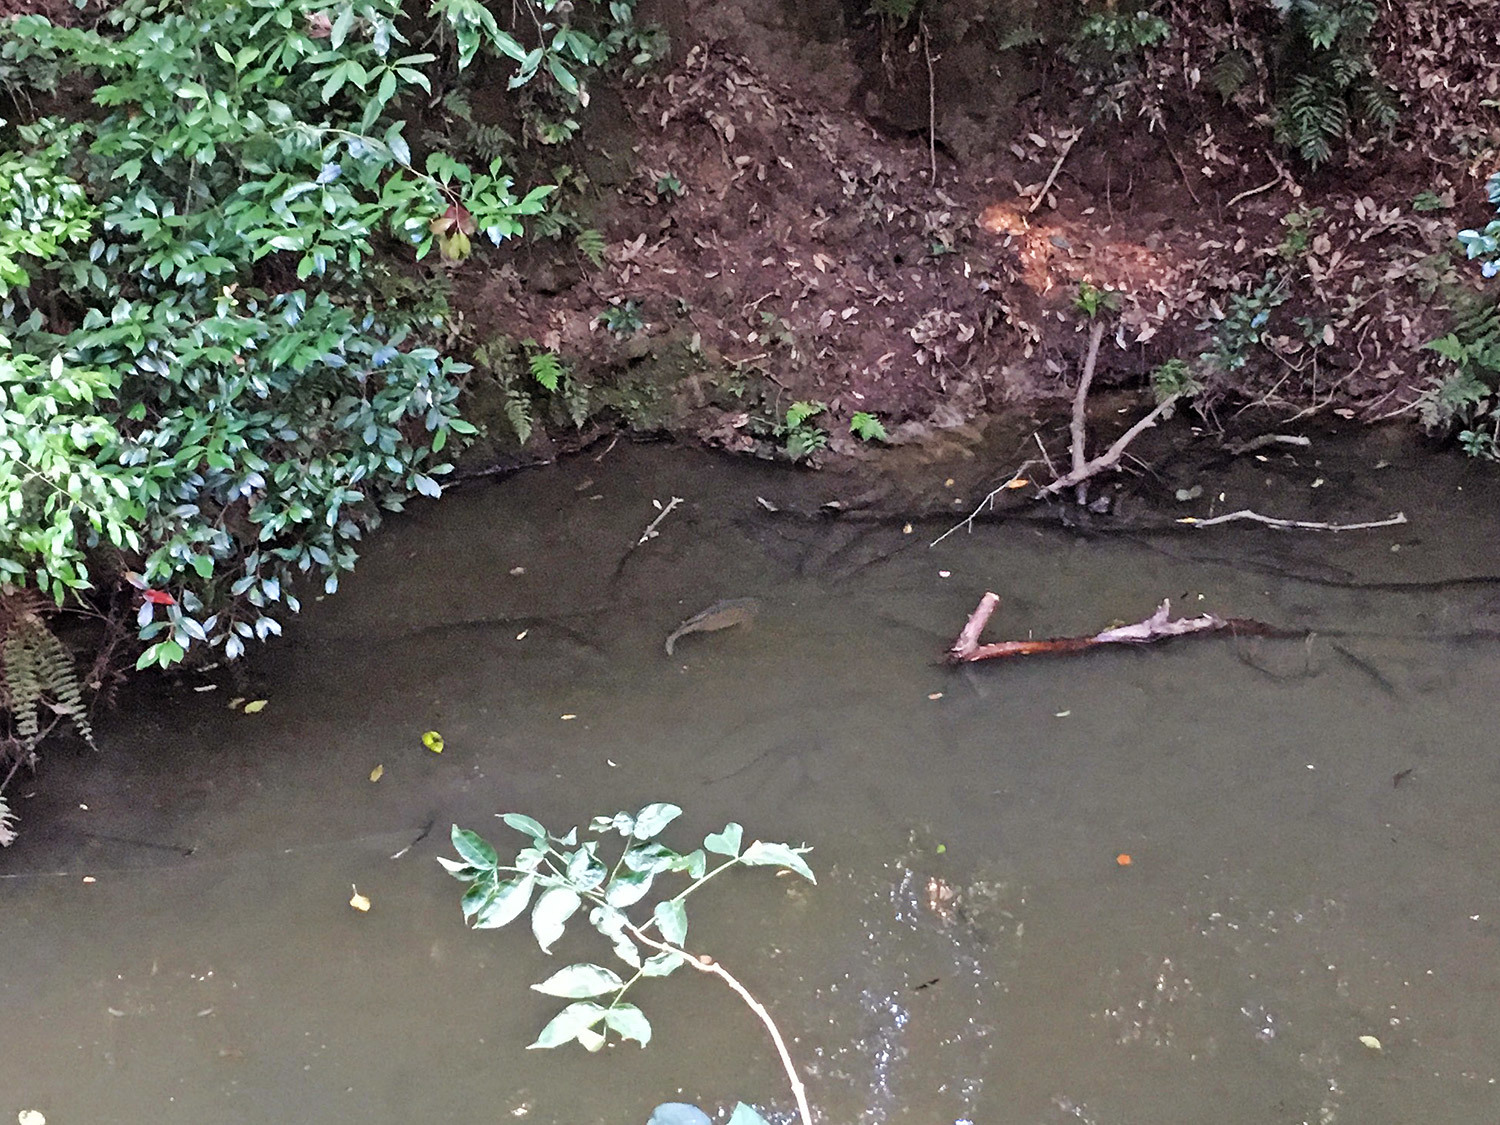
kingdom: Animalia
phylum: Chordata
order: Cypriniformes
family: Cyprinidae
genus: Cyprinus
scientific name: Cyprinus rubrofuscus
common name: Koi
